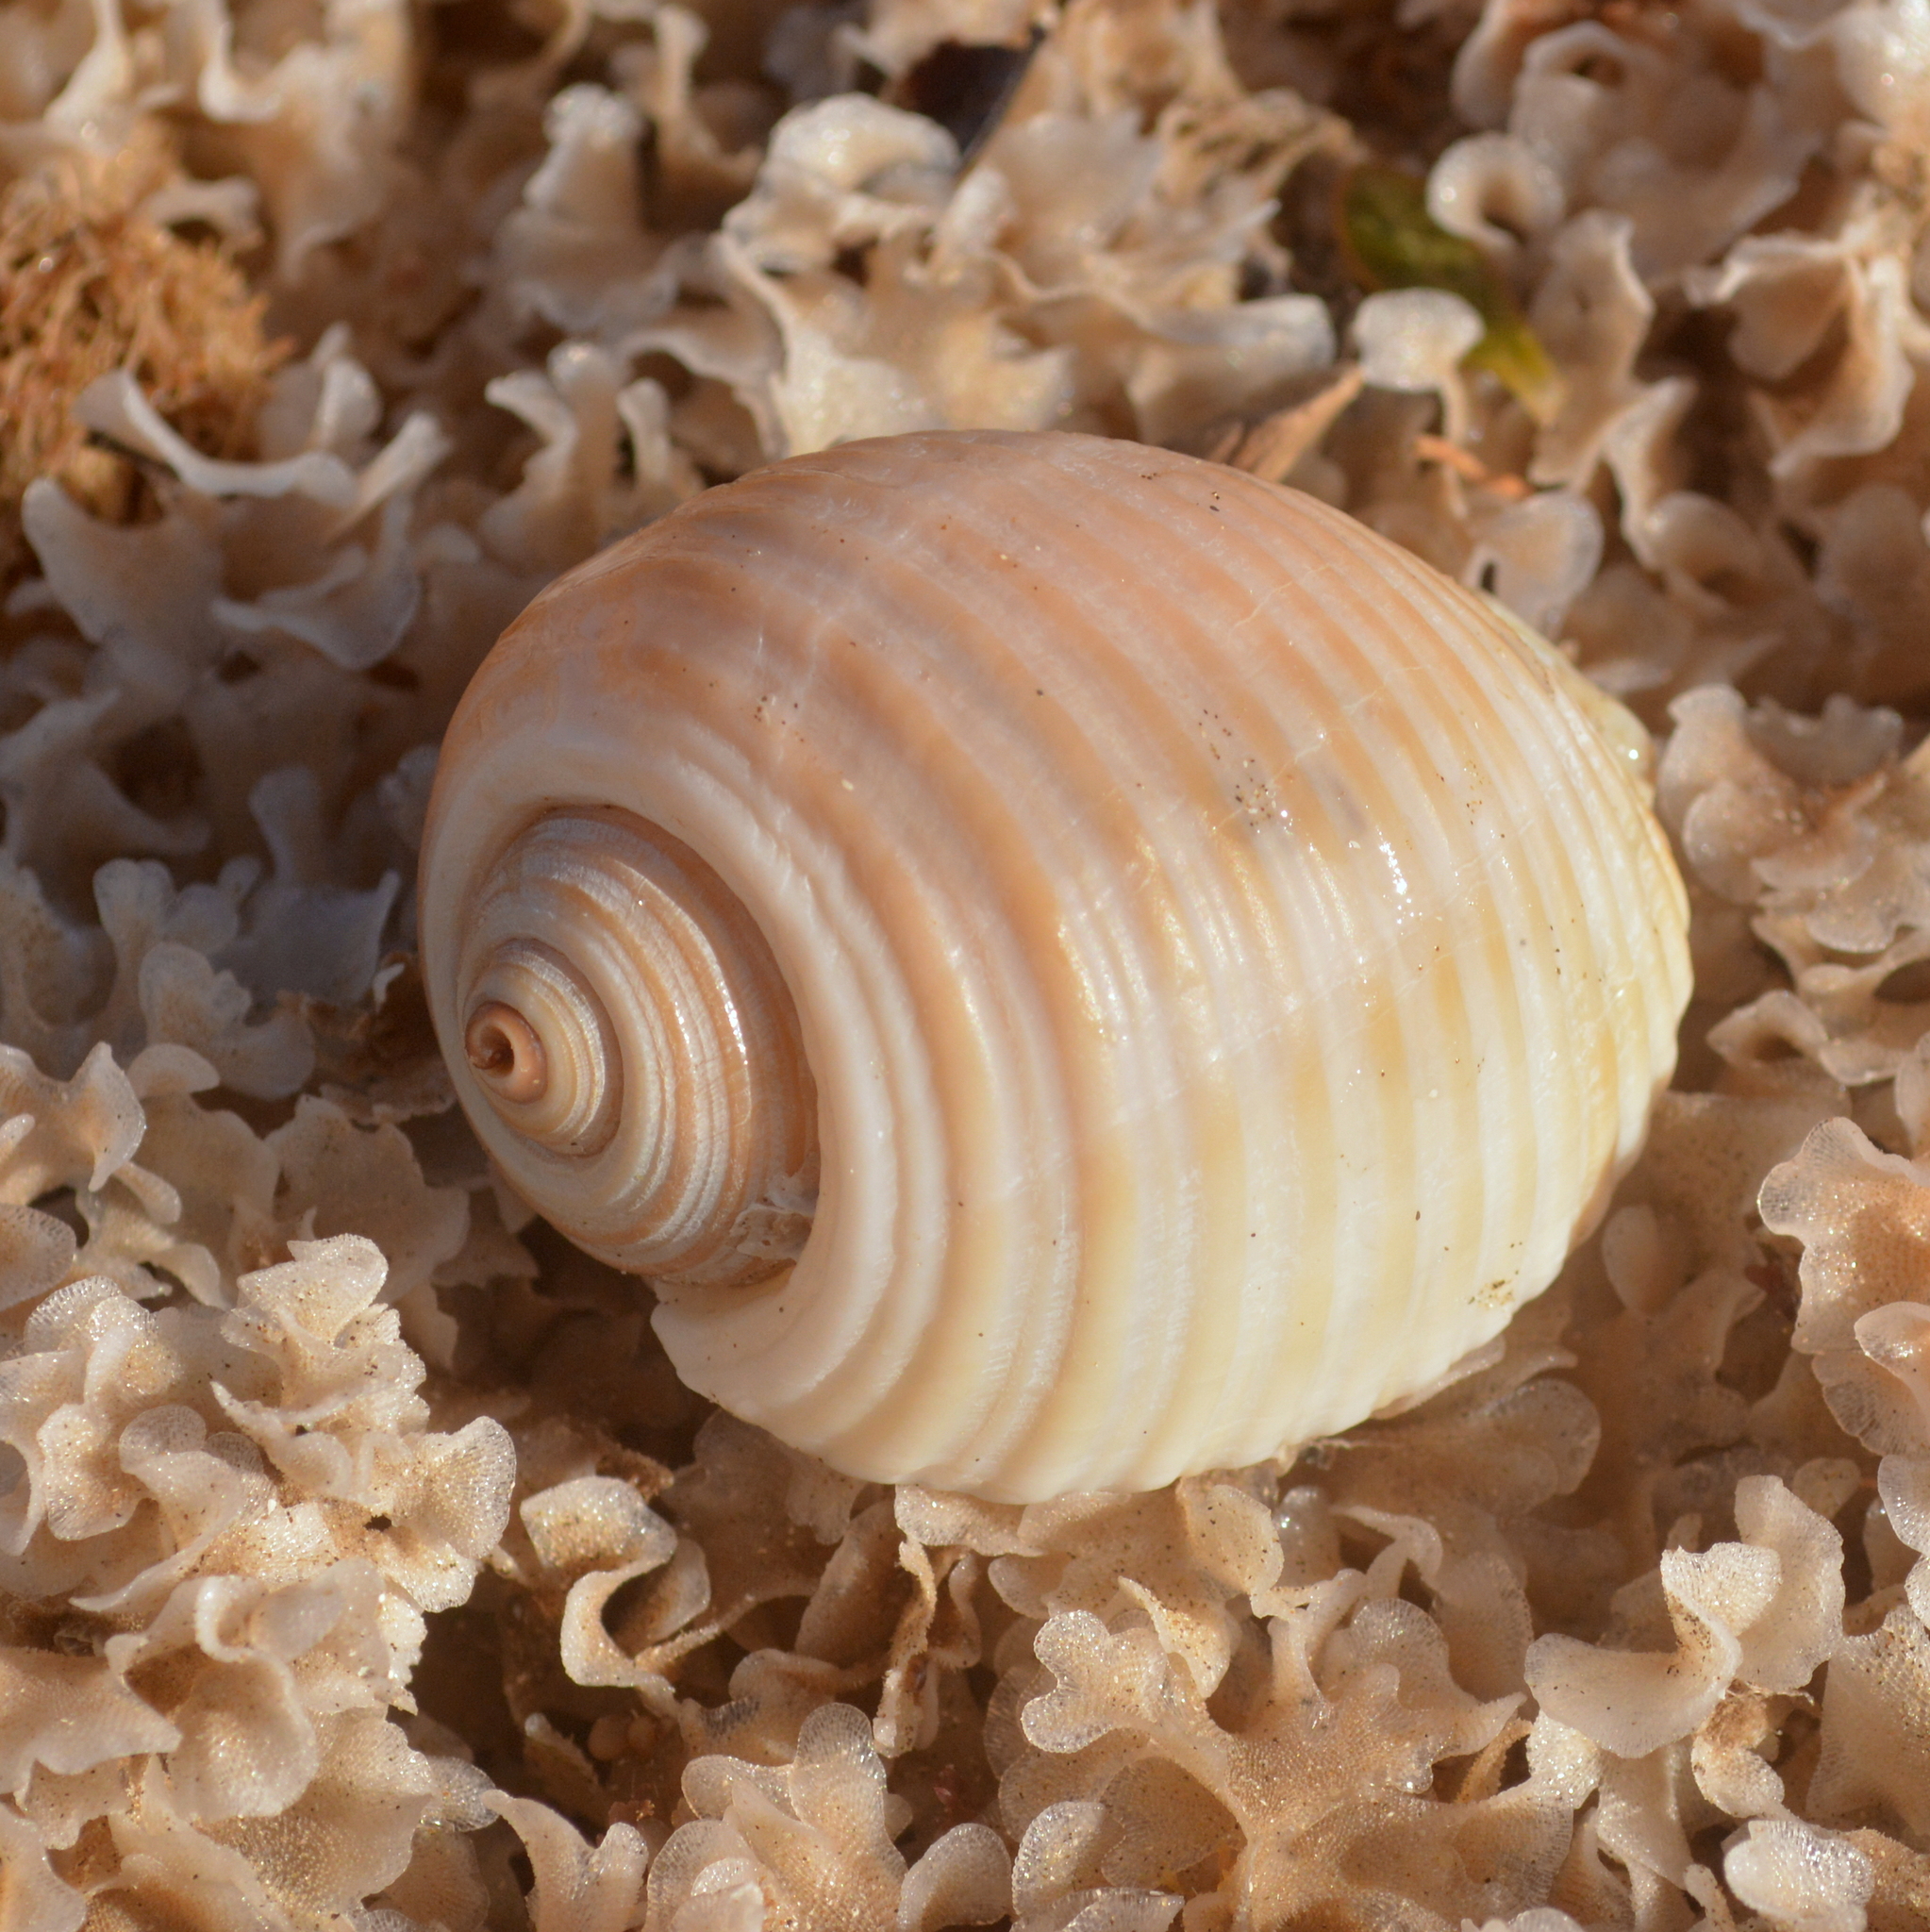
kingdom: Animalia
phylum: Mollusca
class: Gastropoda
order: Littorinimorpha
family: Tonnidae
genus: Tonna
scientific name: Tonna galea
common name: Giant tun
